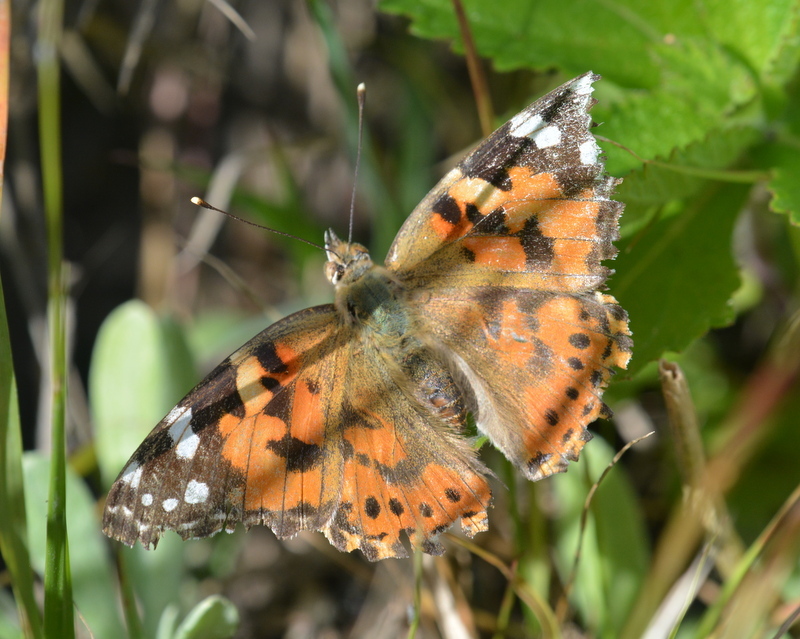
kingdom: Animalia
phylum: Arthropoda
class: Insecta
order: Lepidoptera
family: Nymphalidae
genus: Vanessa
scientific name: Vanessa cardui
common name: Painted lady
